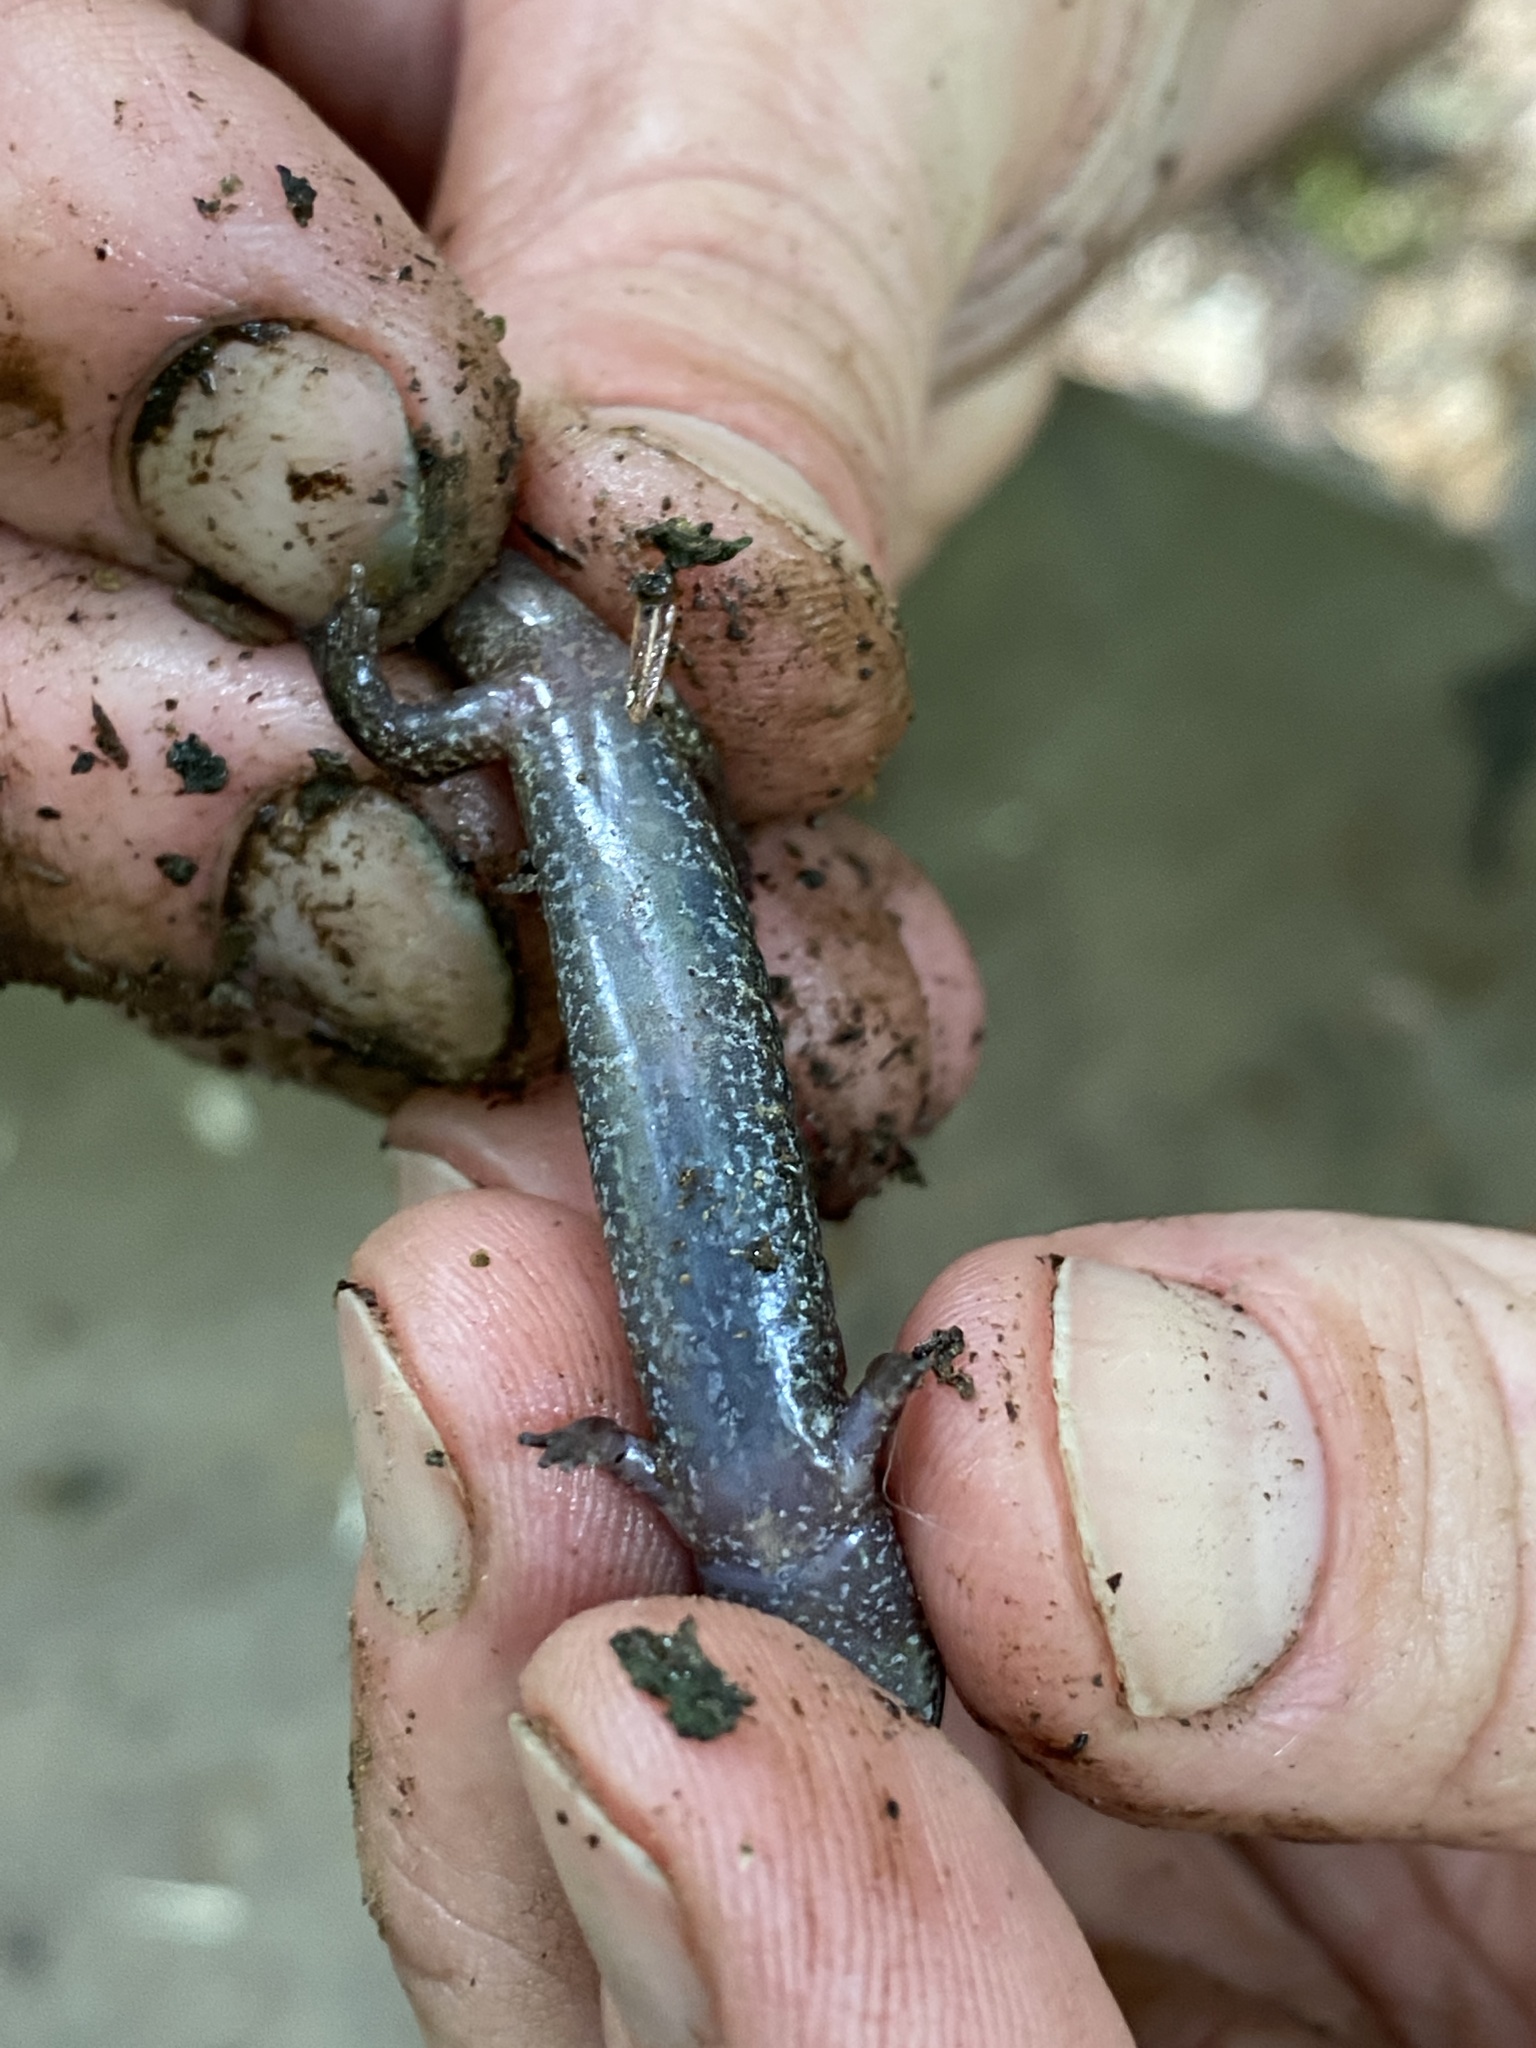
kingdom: Animalia
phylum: Chordata
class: Amphibia
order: Caudata
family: Plethodontidae
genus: Desmognathus
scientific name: Desmognathus fuscus
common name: Northern dusky salamander
